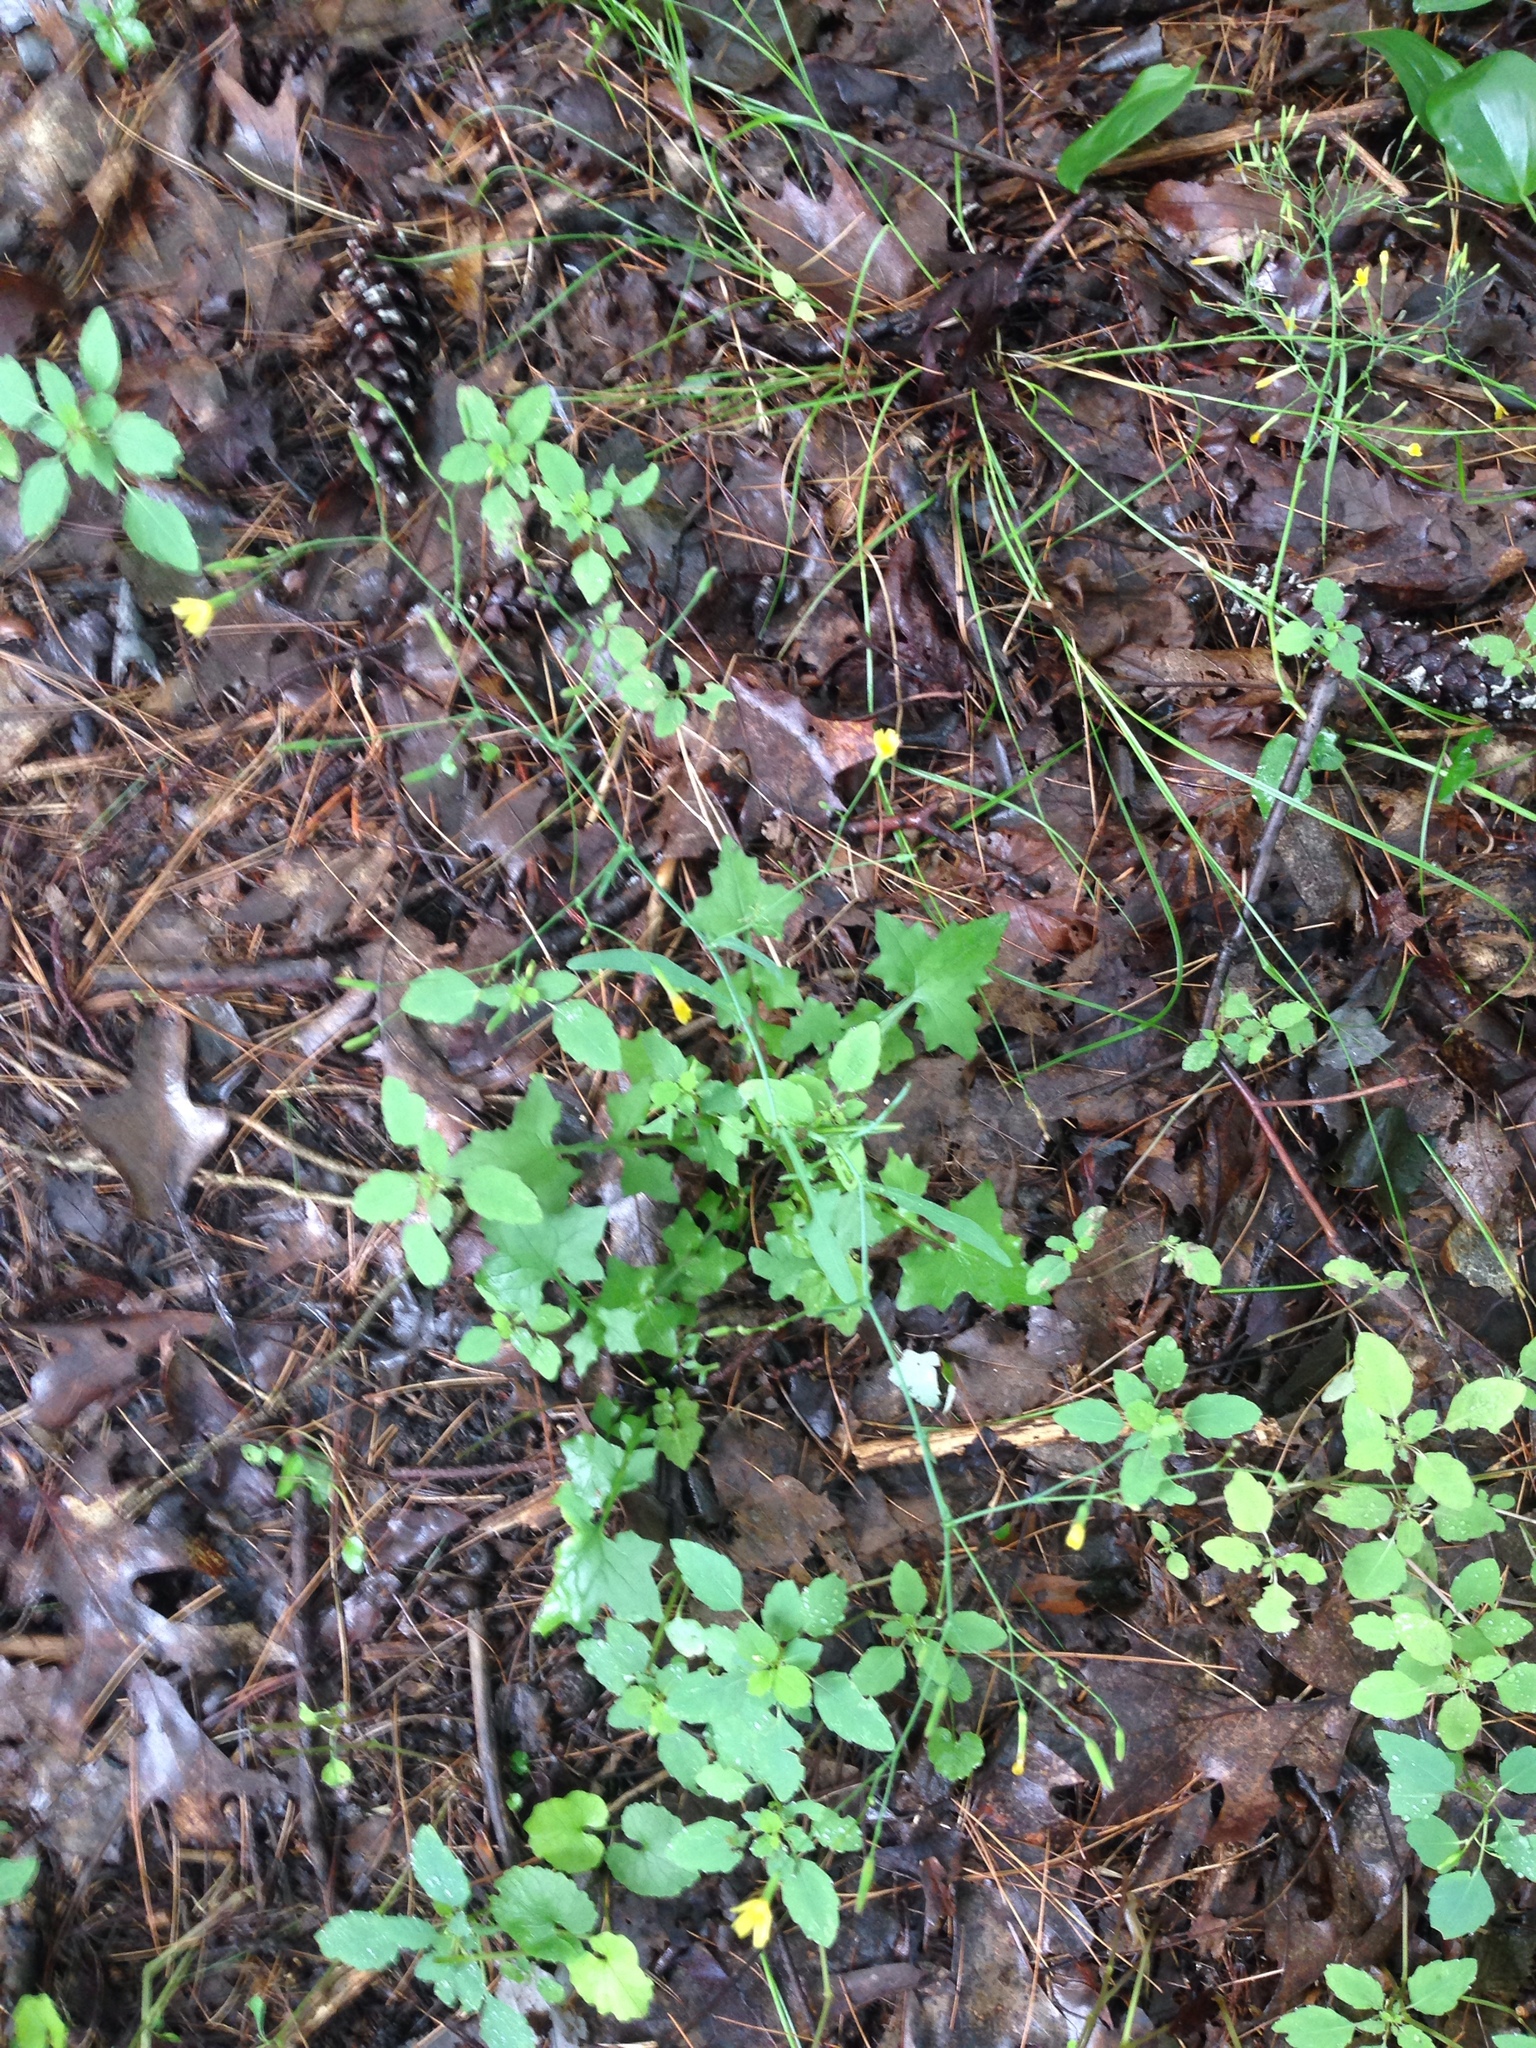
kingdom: Plantae
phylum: Tracheophyta
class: Magnoliopsida
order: Asterales
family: Asteraceae
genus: Mycelis
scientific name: Mycelis muralis
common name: Wall lettuce
